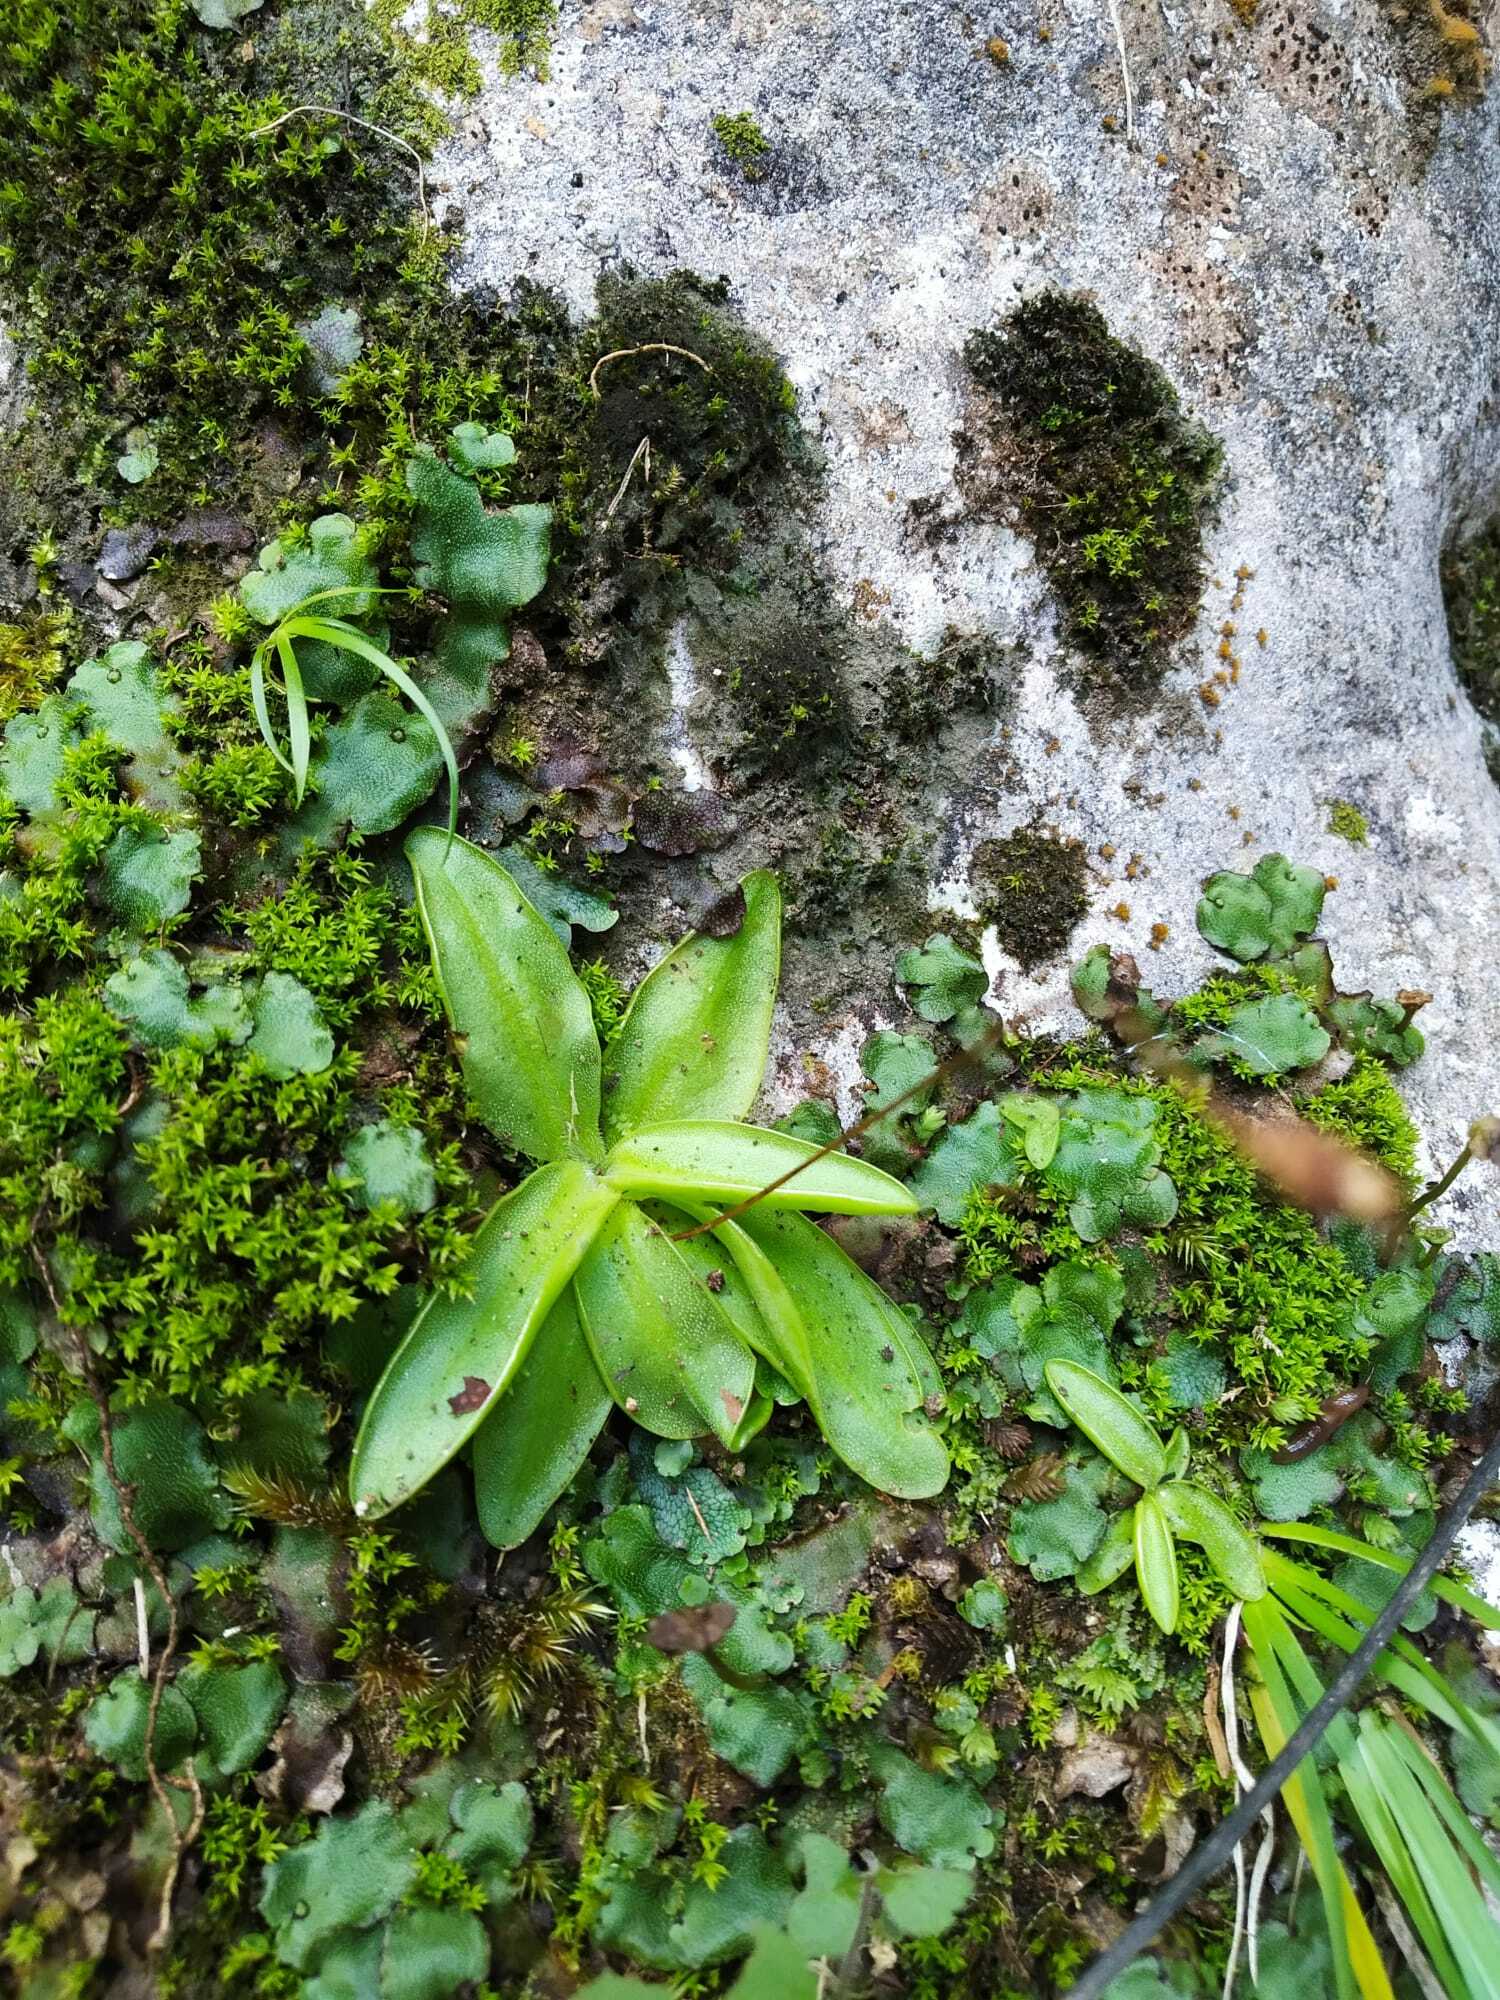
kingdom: Plantae
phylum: Tracheophyta
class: Magnoliopsida
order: Lamiales
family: Lentibulariaceae
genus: Pinguicula
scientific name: Pinguicula alpina
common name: Alpine butterwort
